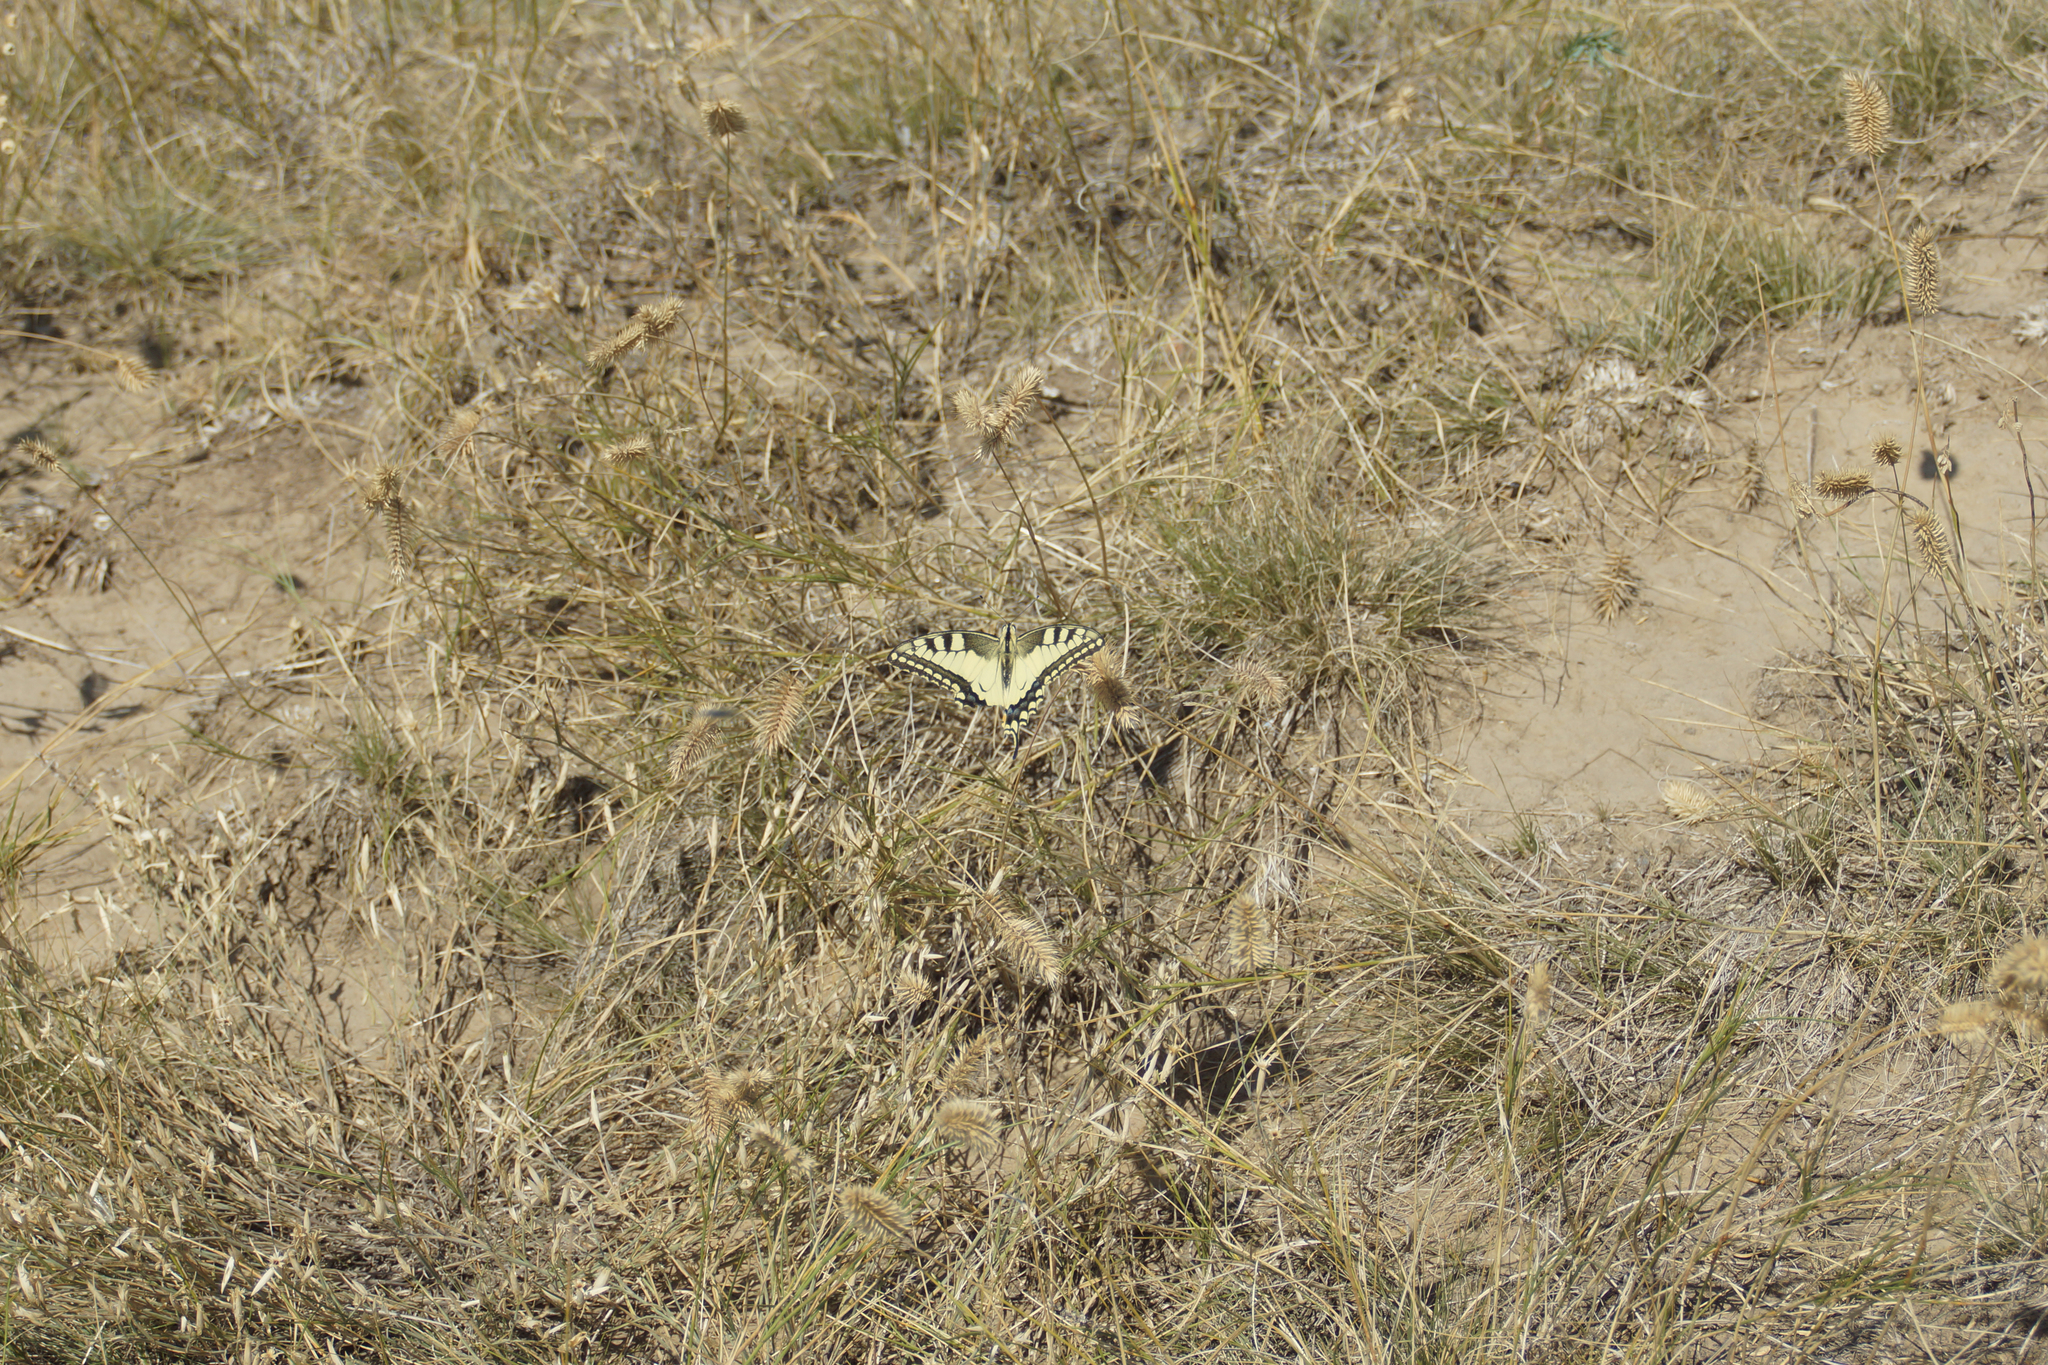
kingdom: Animalia
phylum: Arthropoda
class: Insecta
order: Lepidoptera
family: Papilionidae
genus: Papilio
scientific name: Papilio machaon
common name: Swallowtail
